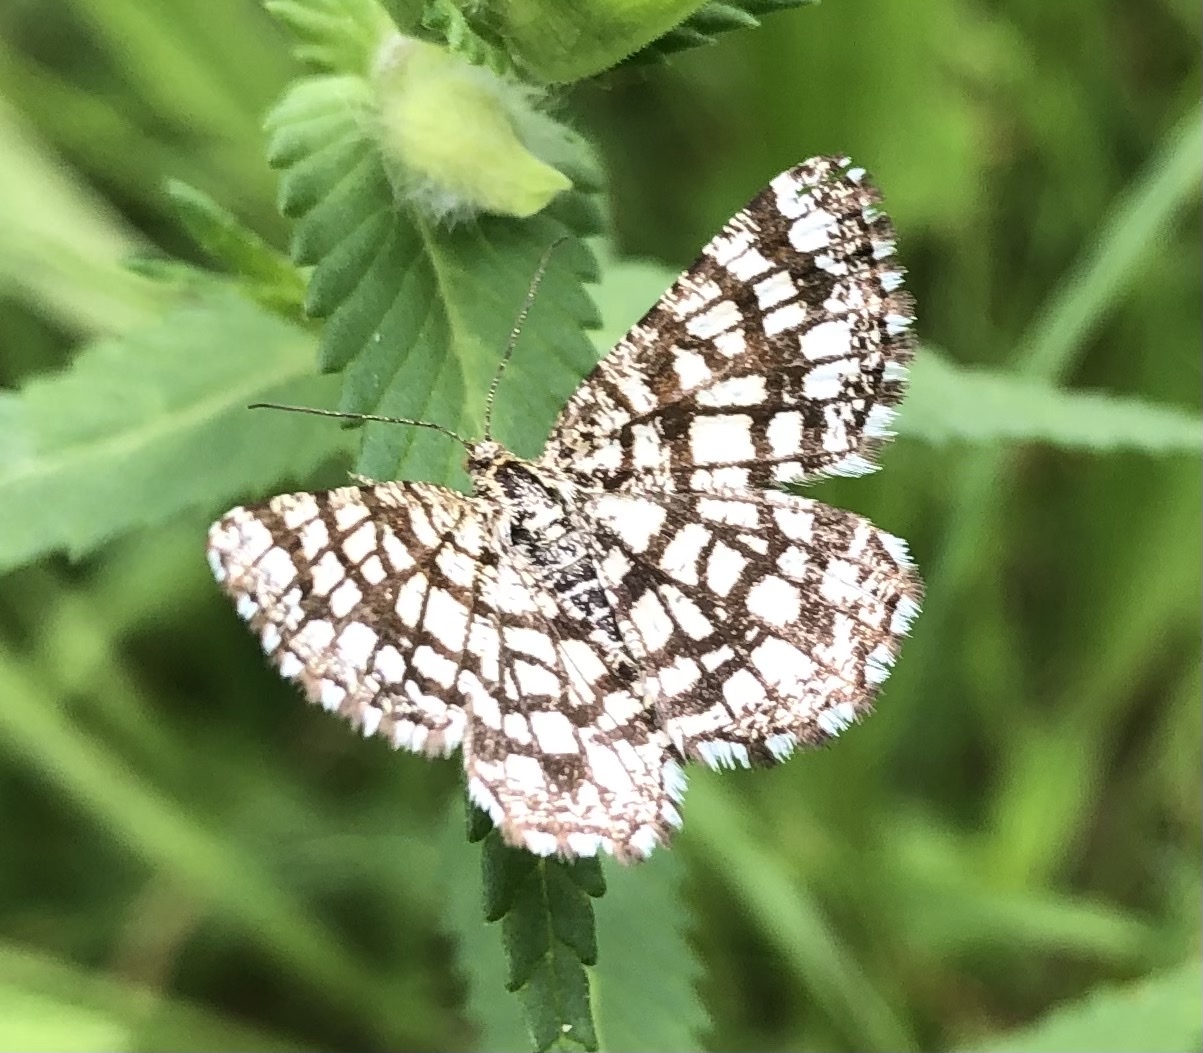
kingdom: Animalia
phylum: Arthropoda
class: Insecta
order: Lepidoptera
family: Geometridae
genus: Chiasmia
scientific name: Chiasmia clathrata
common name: Latticed heath
